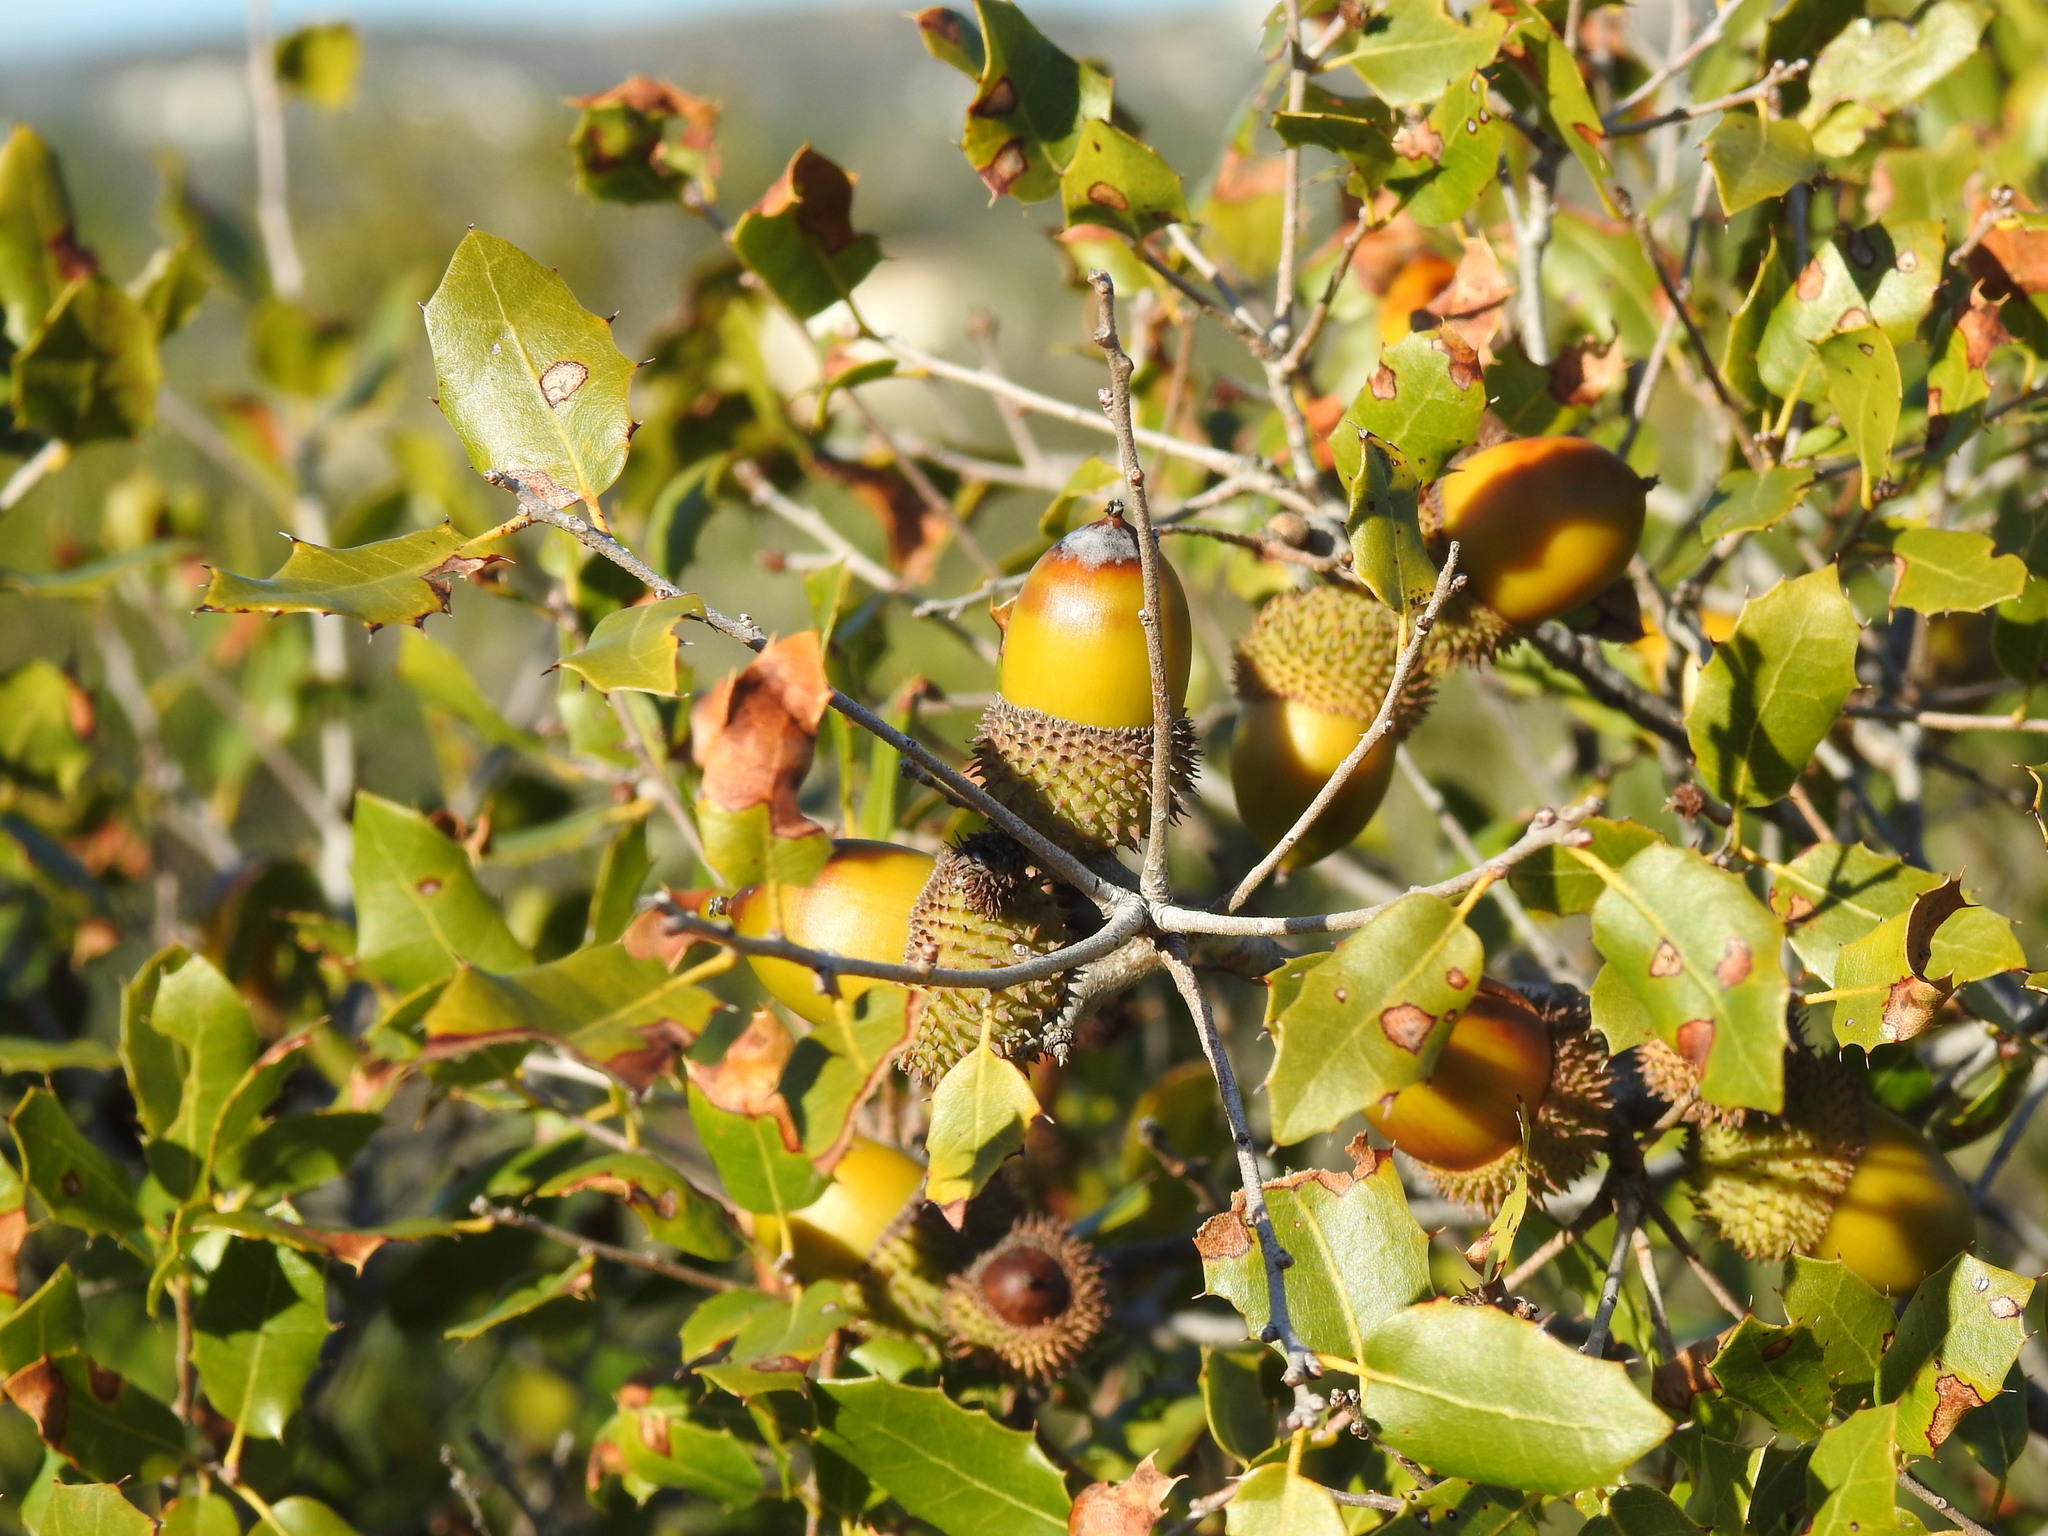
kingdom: Plantae
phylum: Tracheophyta
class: Magnoliopsida
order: Fagales
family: Fagaceae
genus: Quercus
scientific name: Quercus coccifera
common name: Kermes oak
